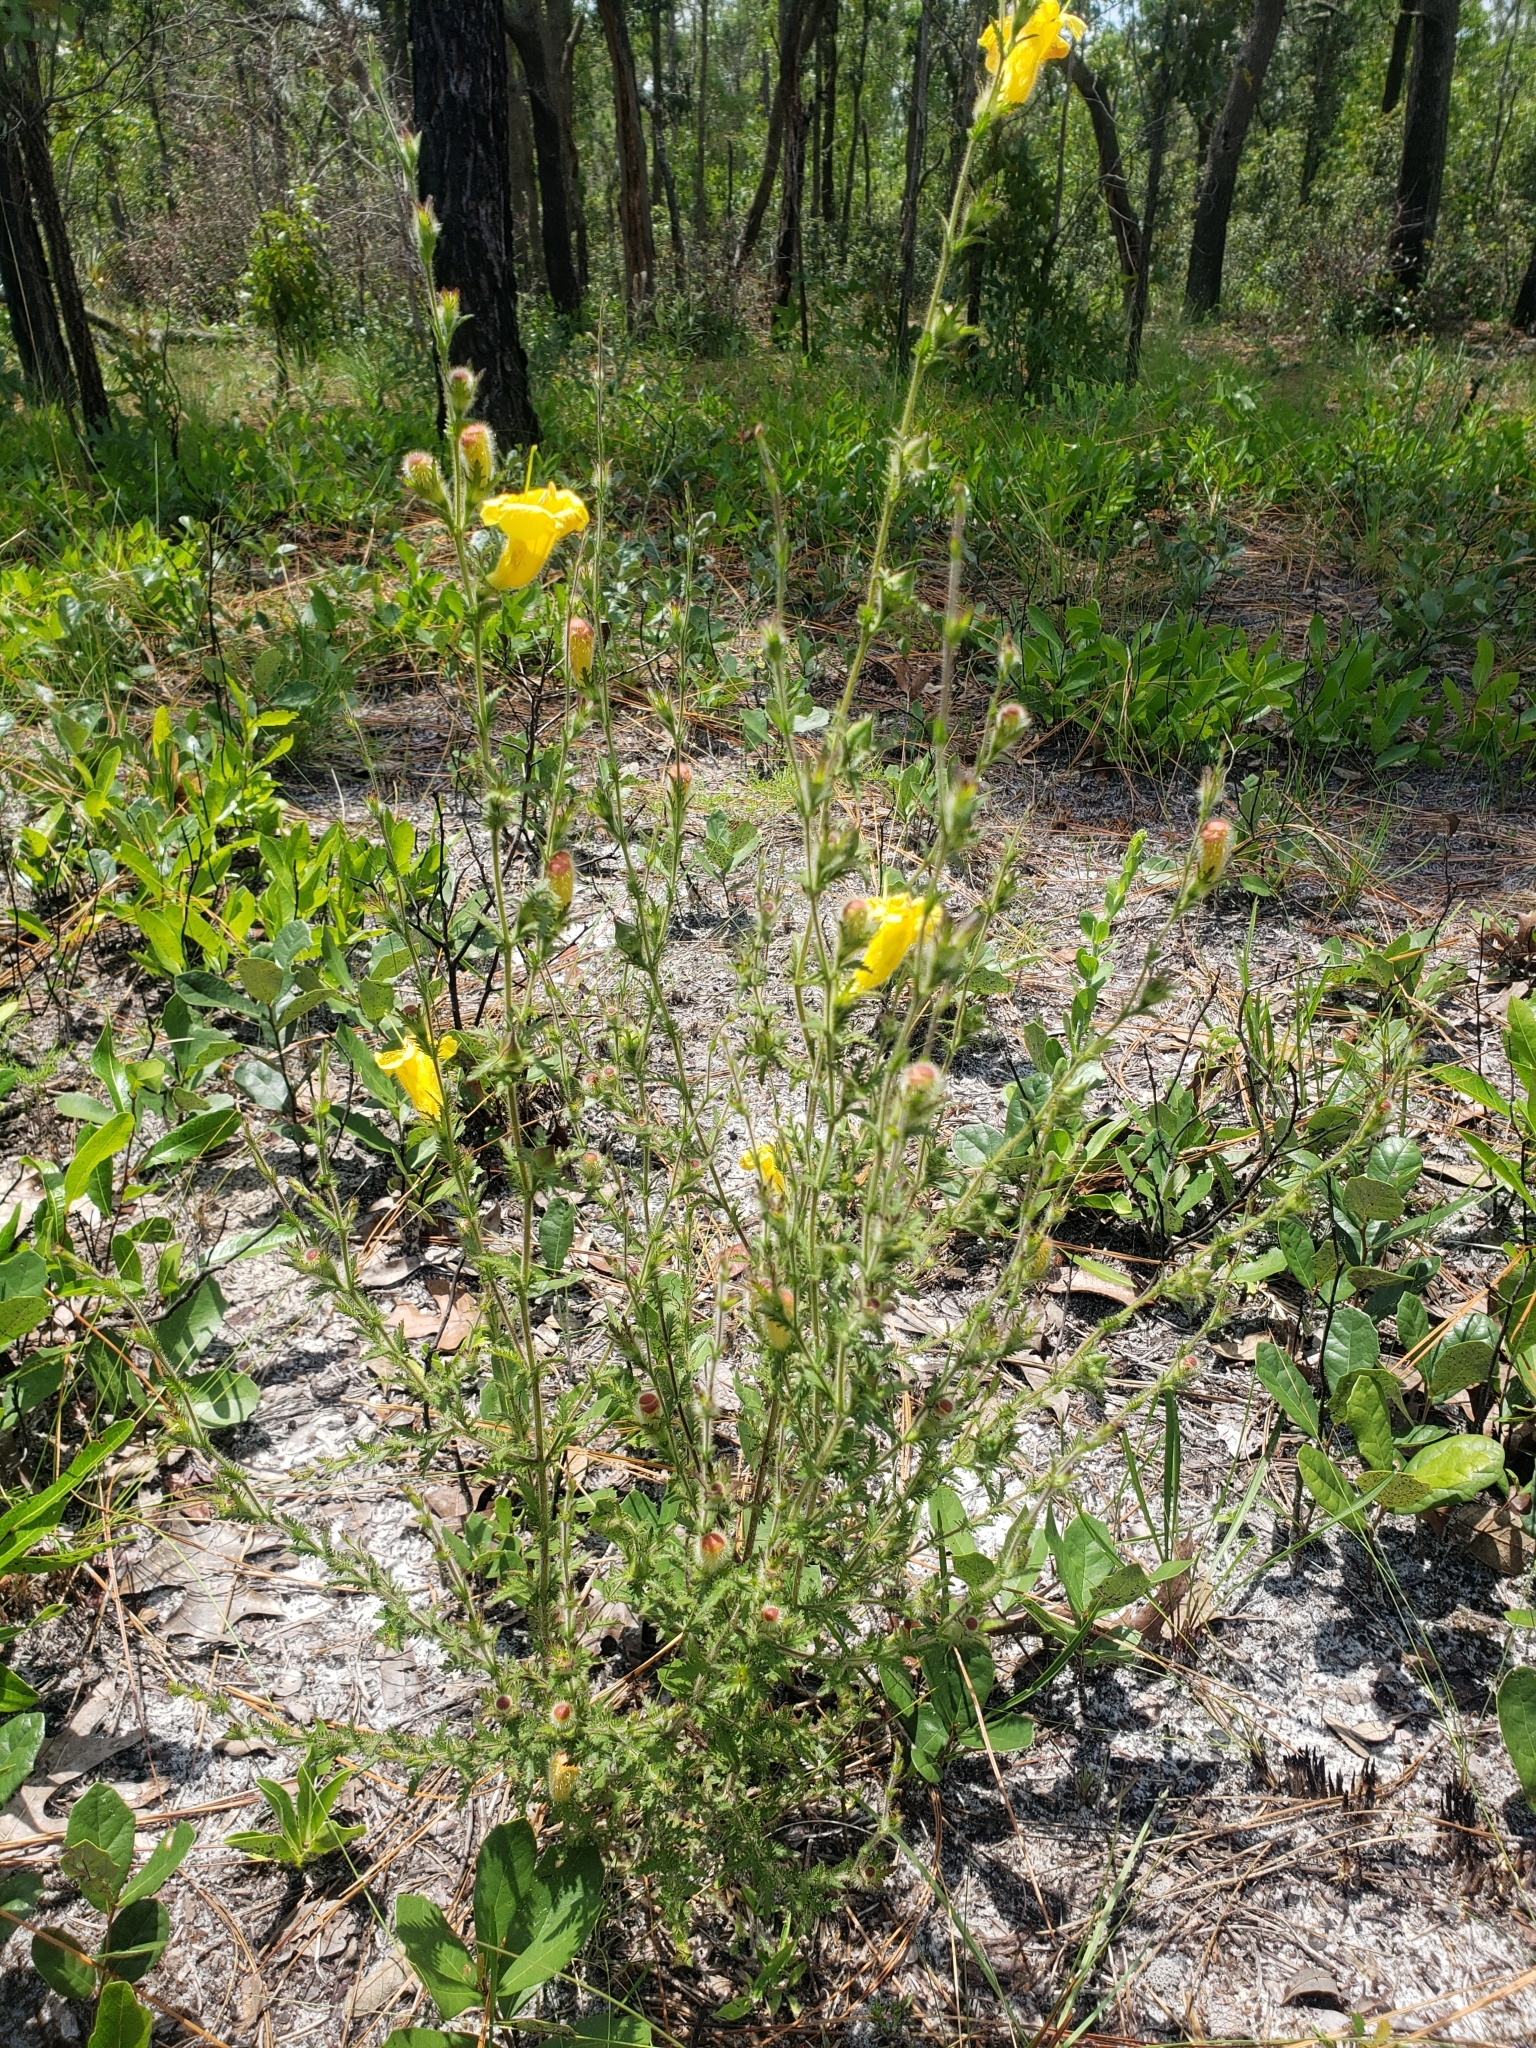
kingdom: Plantae
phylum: Tracheophyta
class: Magnoliopsida
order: Lamiales
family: Orobanchaceae
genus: Aureolaria
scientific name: Aureolaria pectinata
